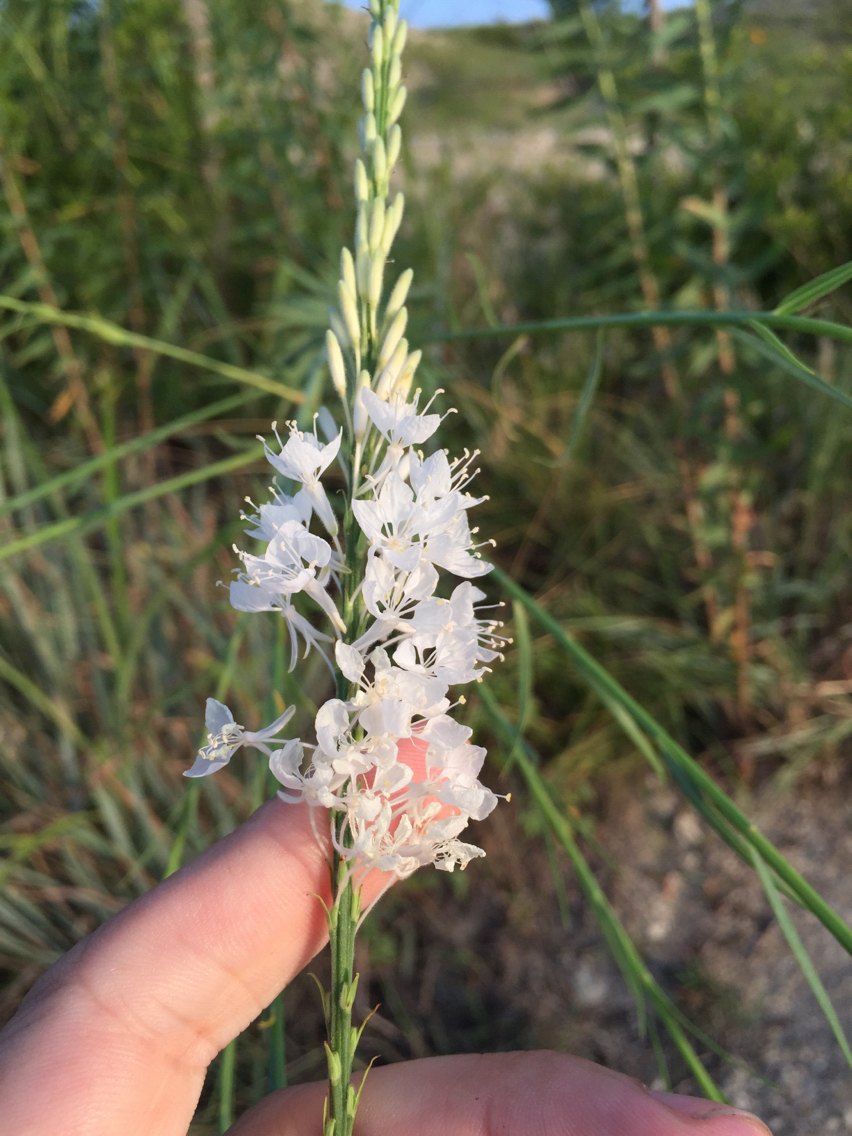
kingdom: Plantae
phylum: Tracheophyta
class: Magnoliopsida
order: Myrtales
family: Onagraceae
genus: Oenothera
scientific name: Oenothera glaucifolia
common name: False gaura
